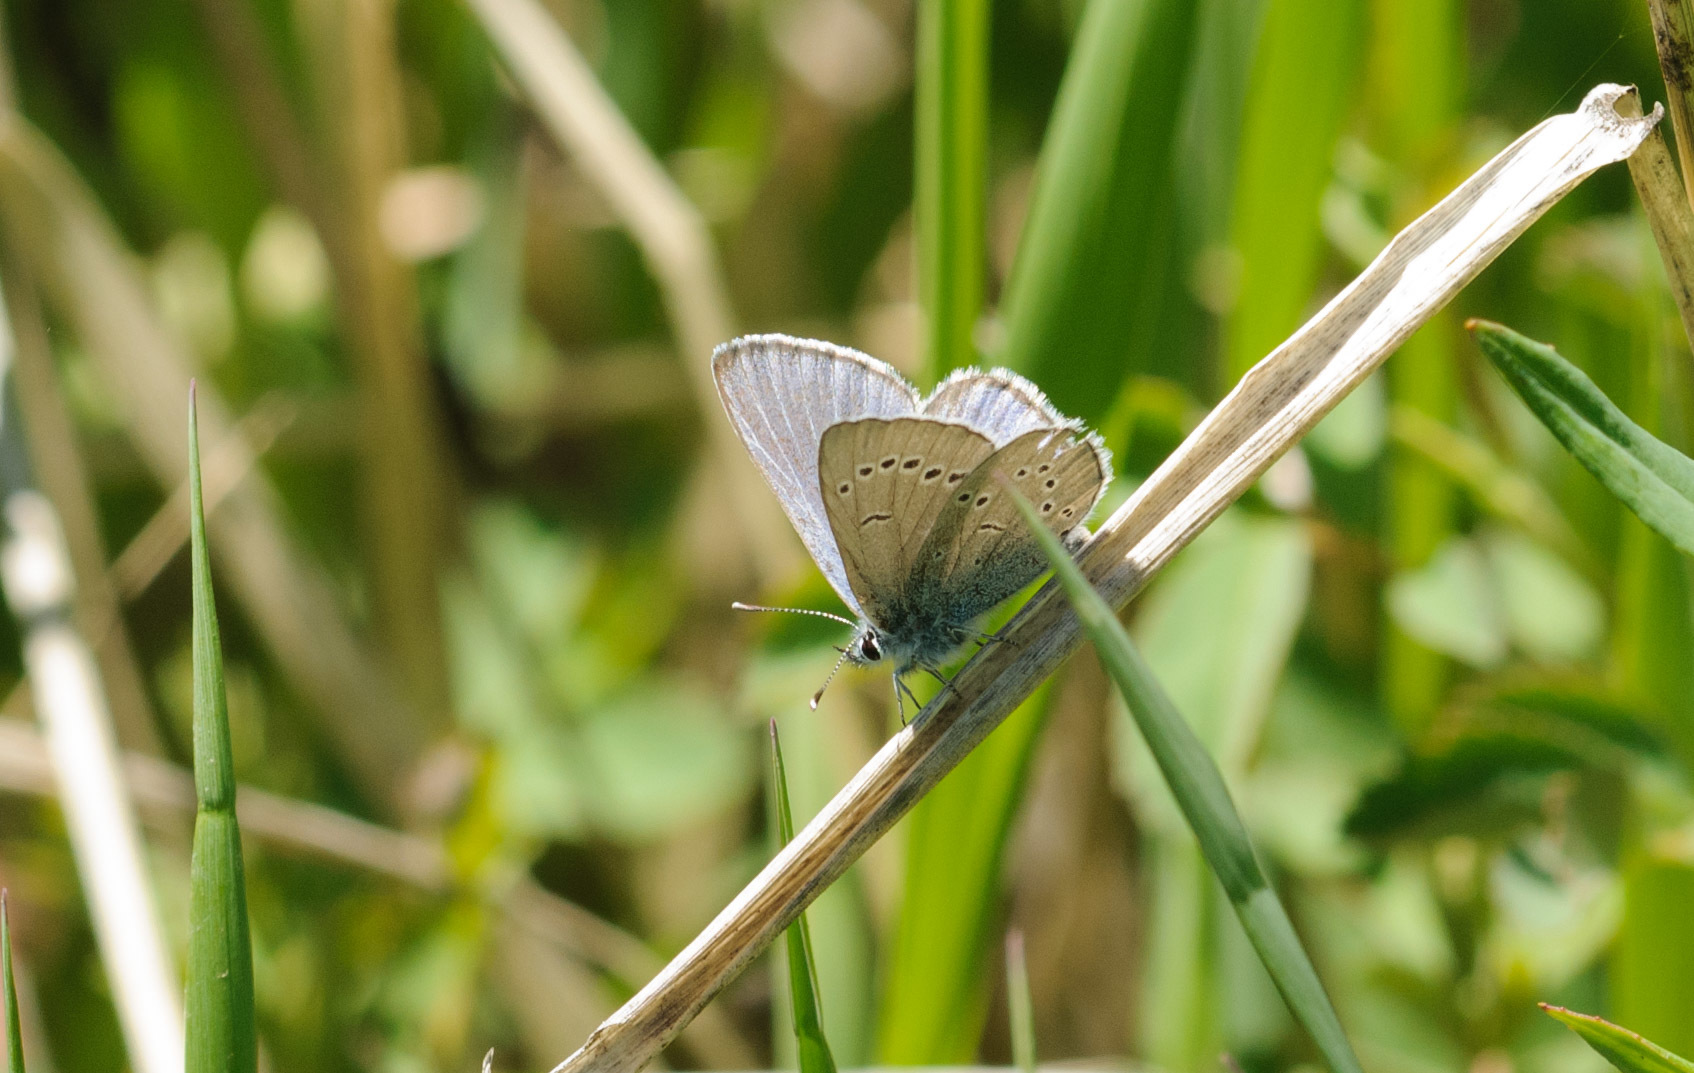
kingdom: Animalia
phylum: Arthropoda
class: Insecta
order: Lepidoptera
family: Lycaenidae
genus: Glaucopsyche
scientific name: Glaucopsyche lygdamus
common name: Silvery blue
